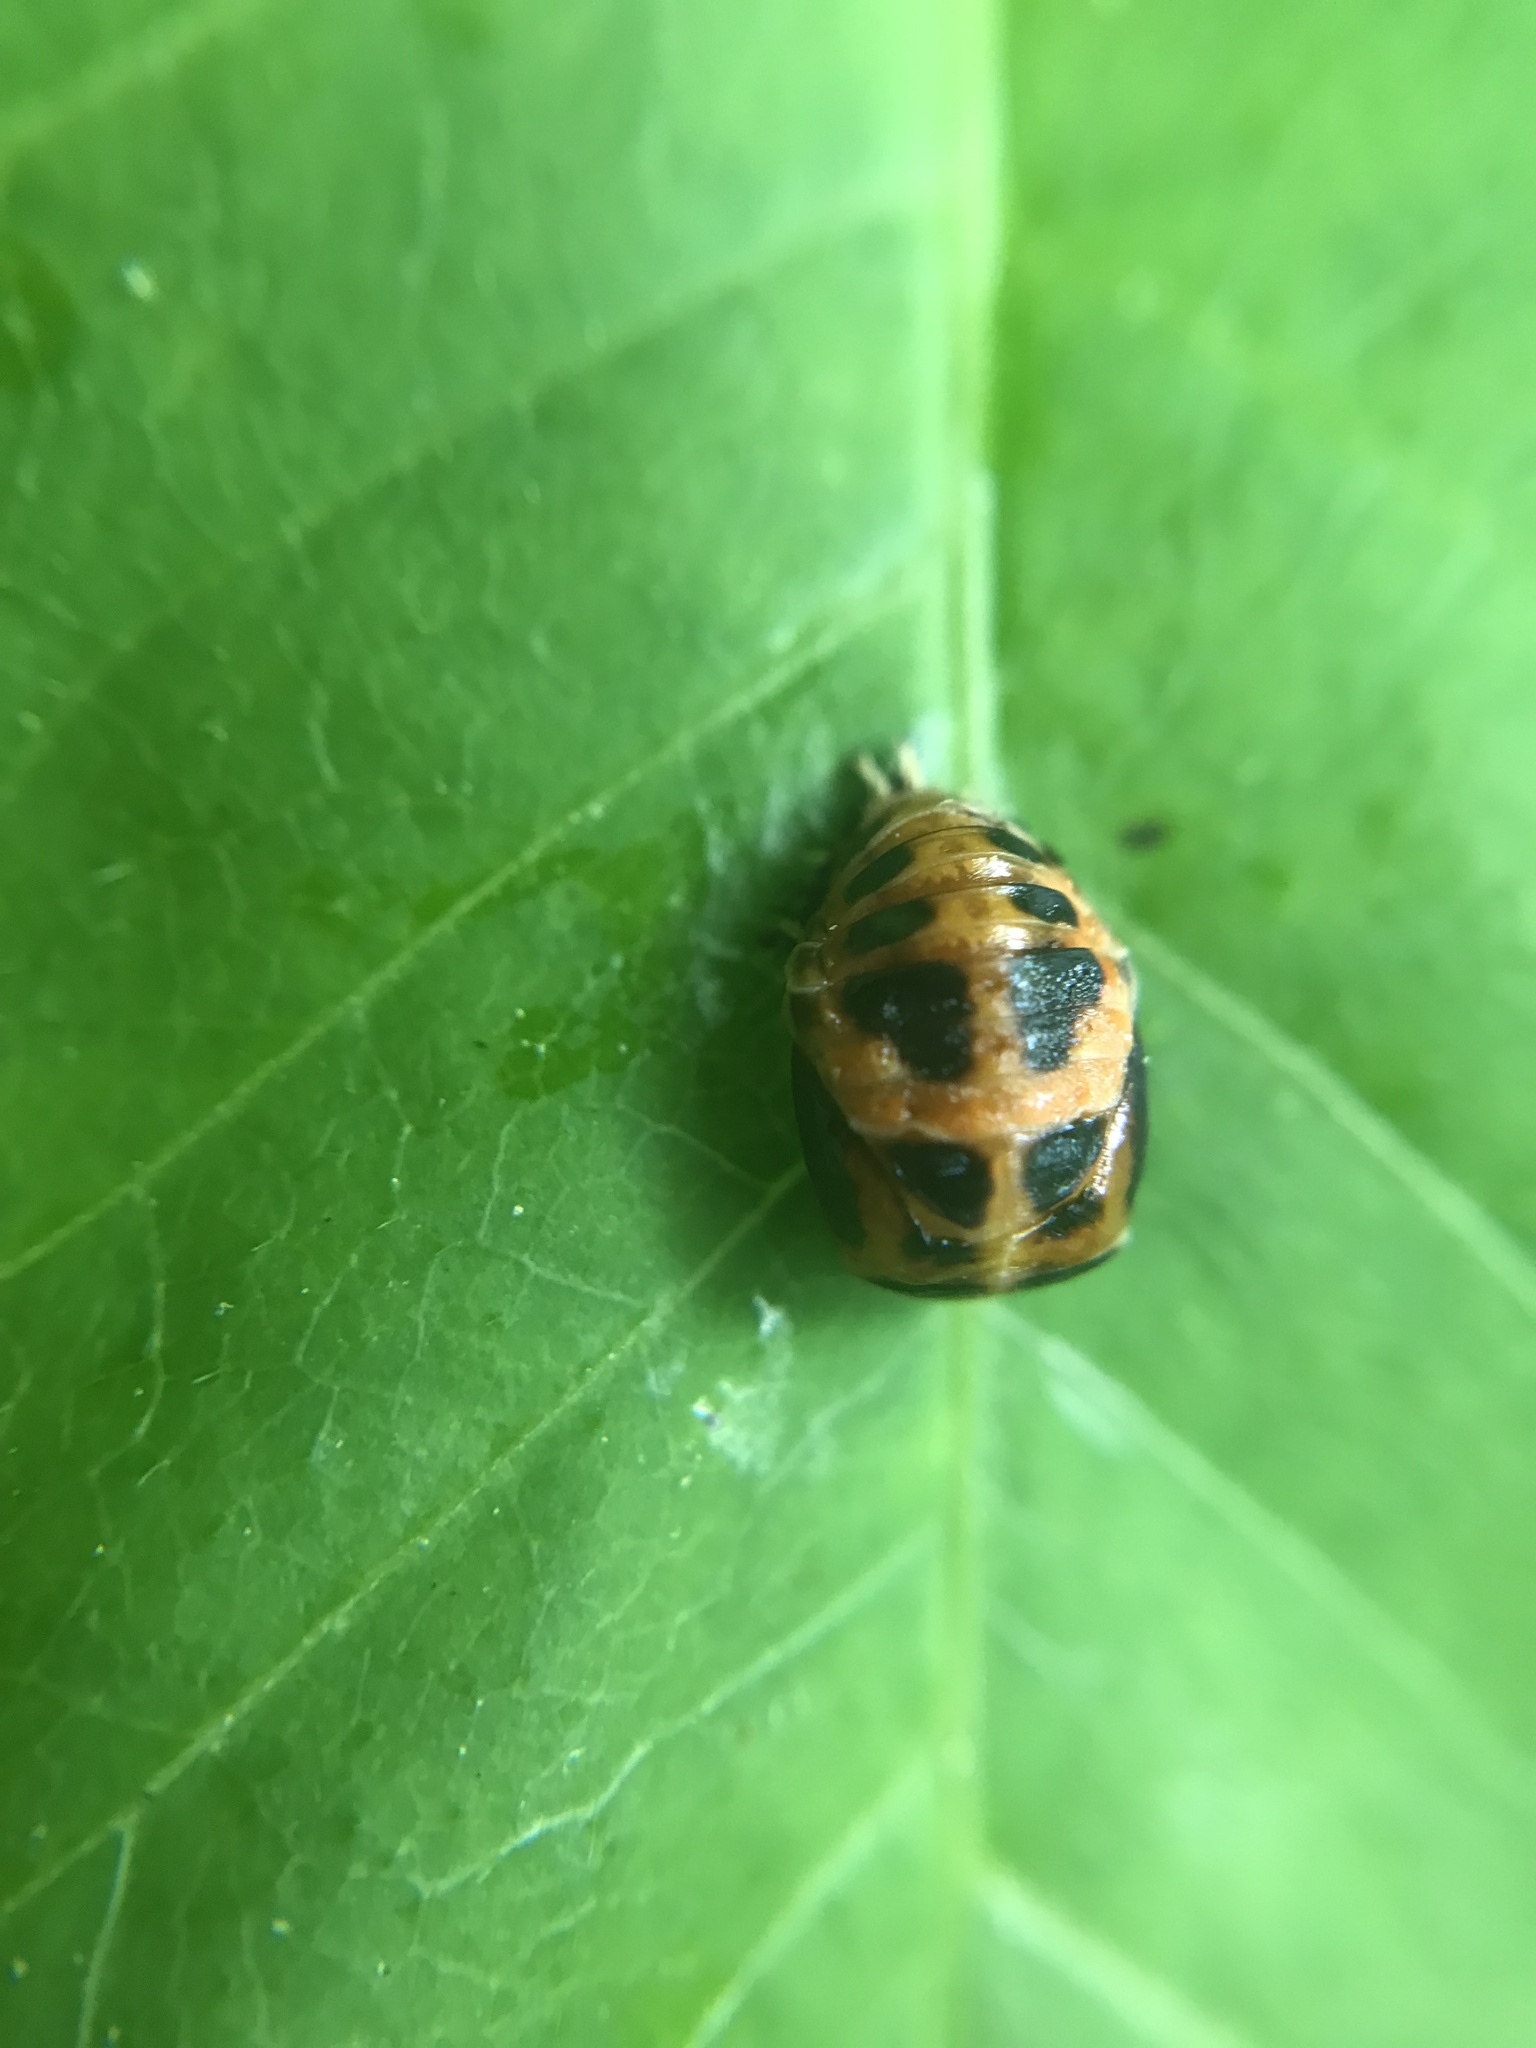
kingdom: Animalia
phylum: Arthropoda
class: Insecta
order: Coleoptera
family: Coccinellidae
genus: Harmonia
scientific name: Harmonia axyridis
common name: Harlequin ladybird
